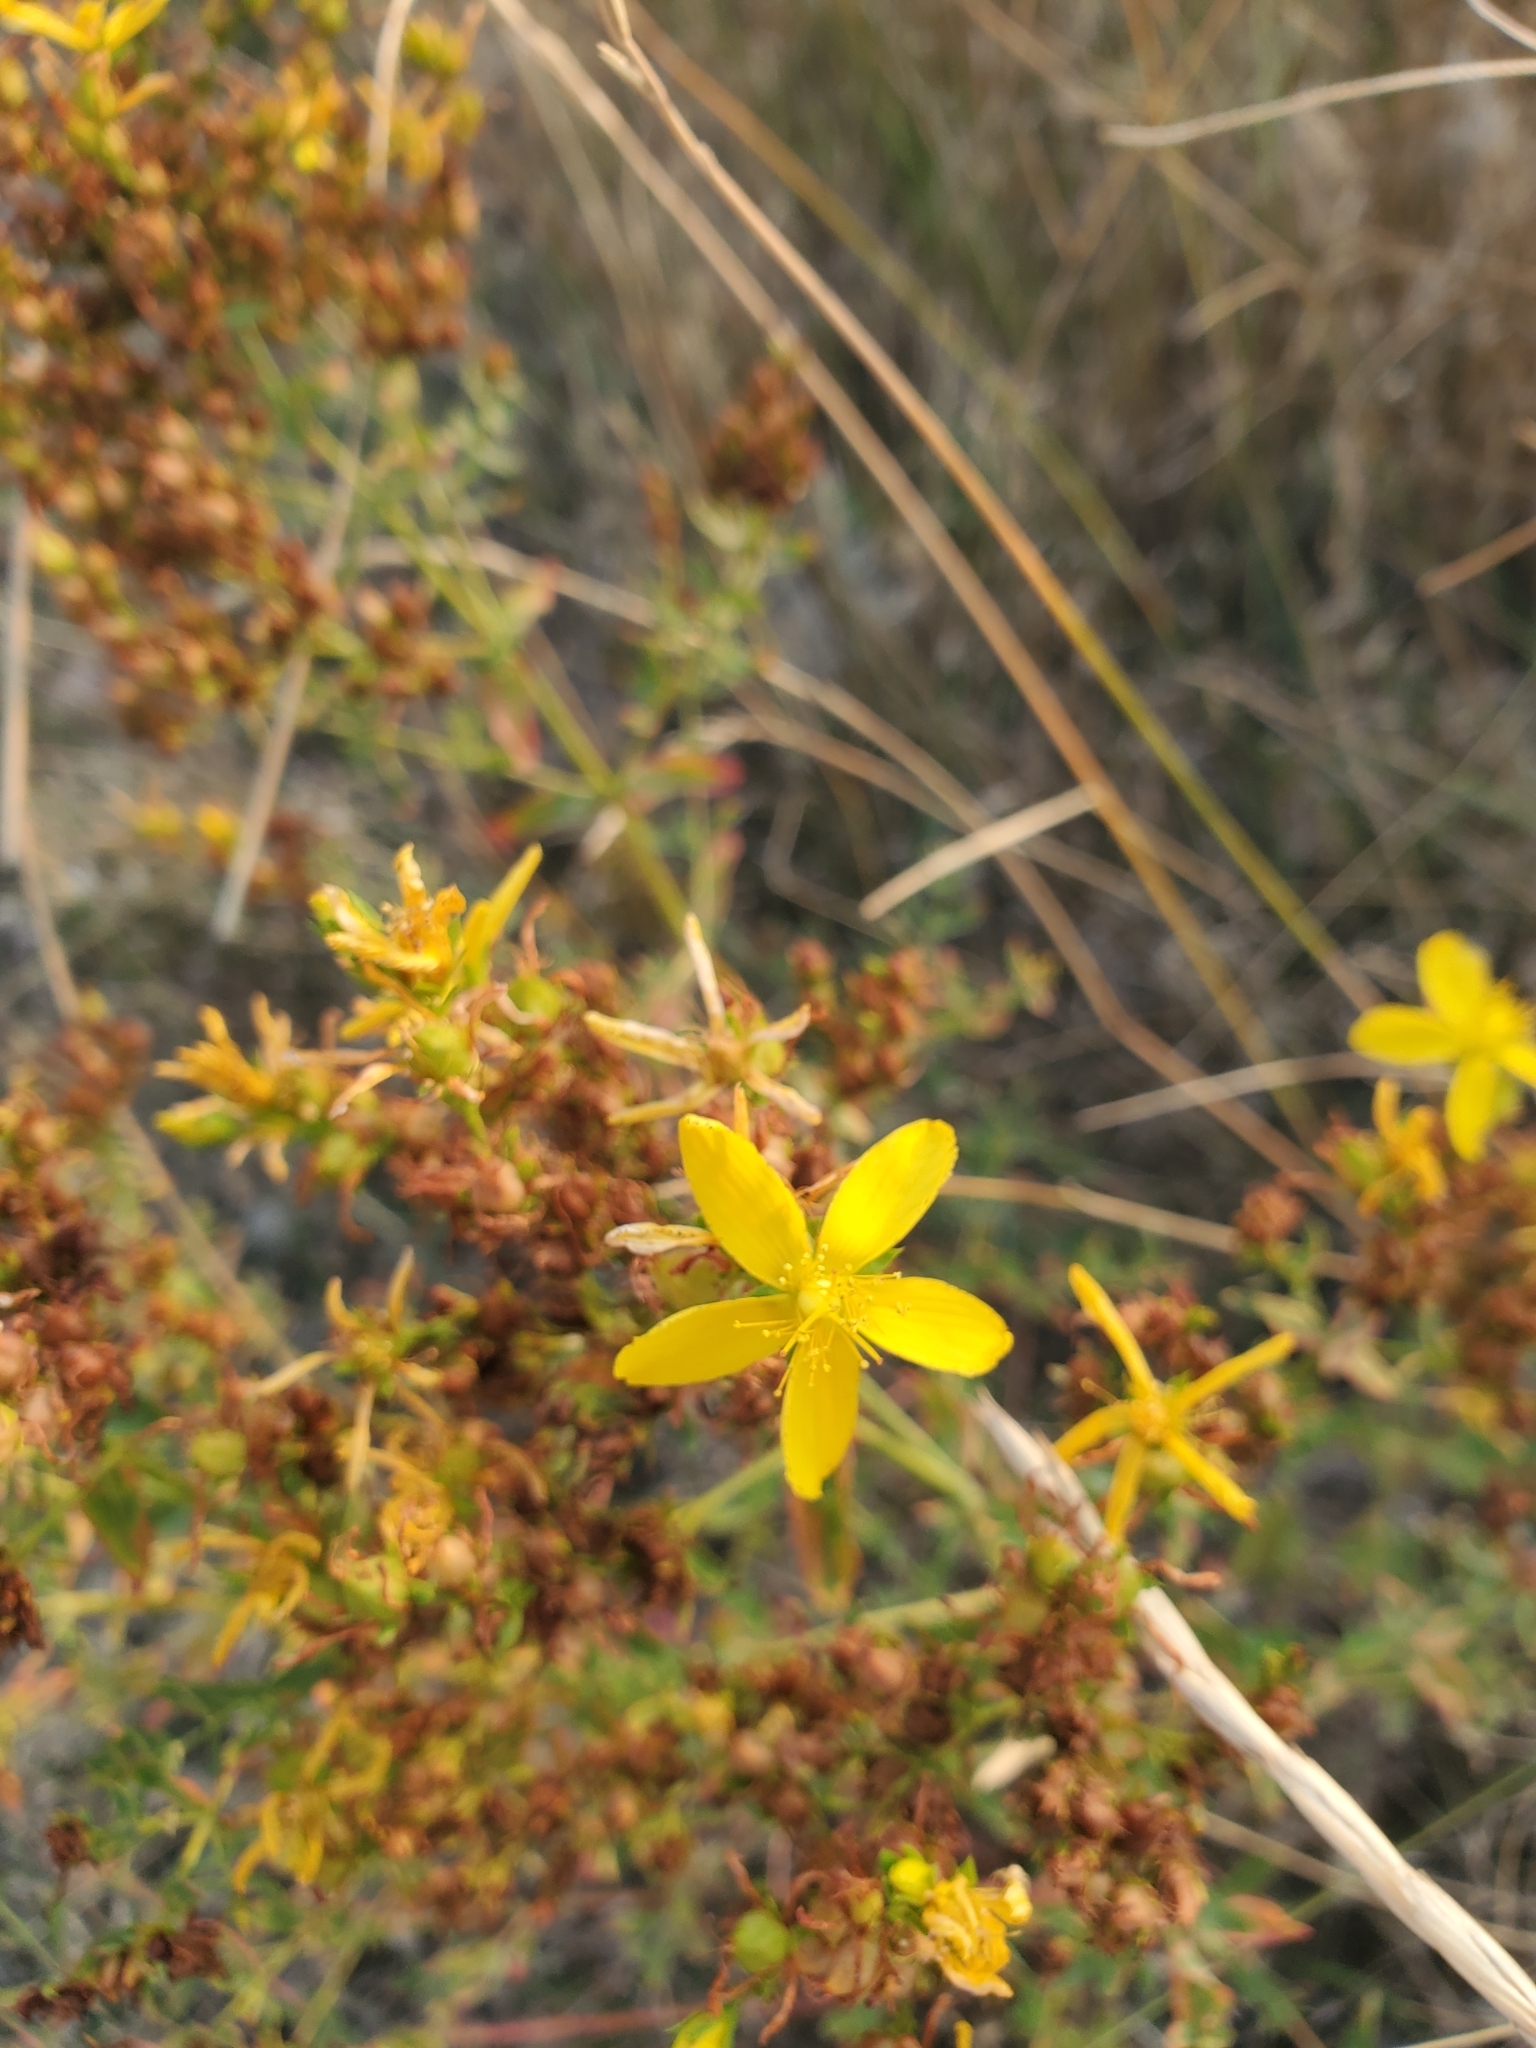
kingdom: Plantae
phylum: Tracheophyta
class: Magnoliopsida
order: Malpighiales
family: Hypericaceae
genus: Hypericum
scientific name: Hypericum perforatum
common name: Common st. johnswort
